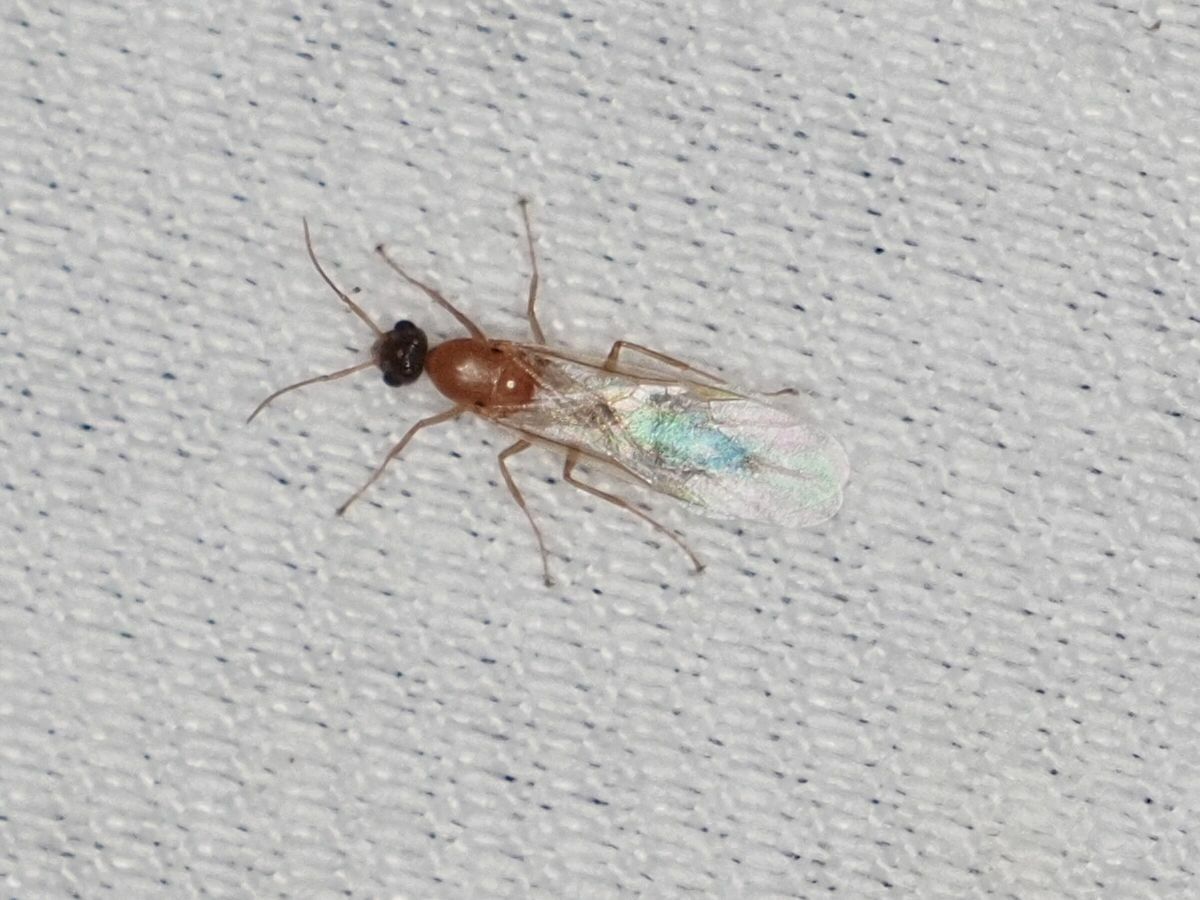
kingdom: Animalia
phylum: Arthropoda
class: Insecta
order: Hymenoptera
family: Formicidae
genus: Camponotus
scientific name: Camponotus truncatus
